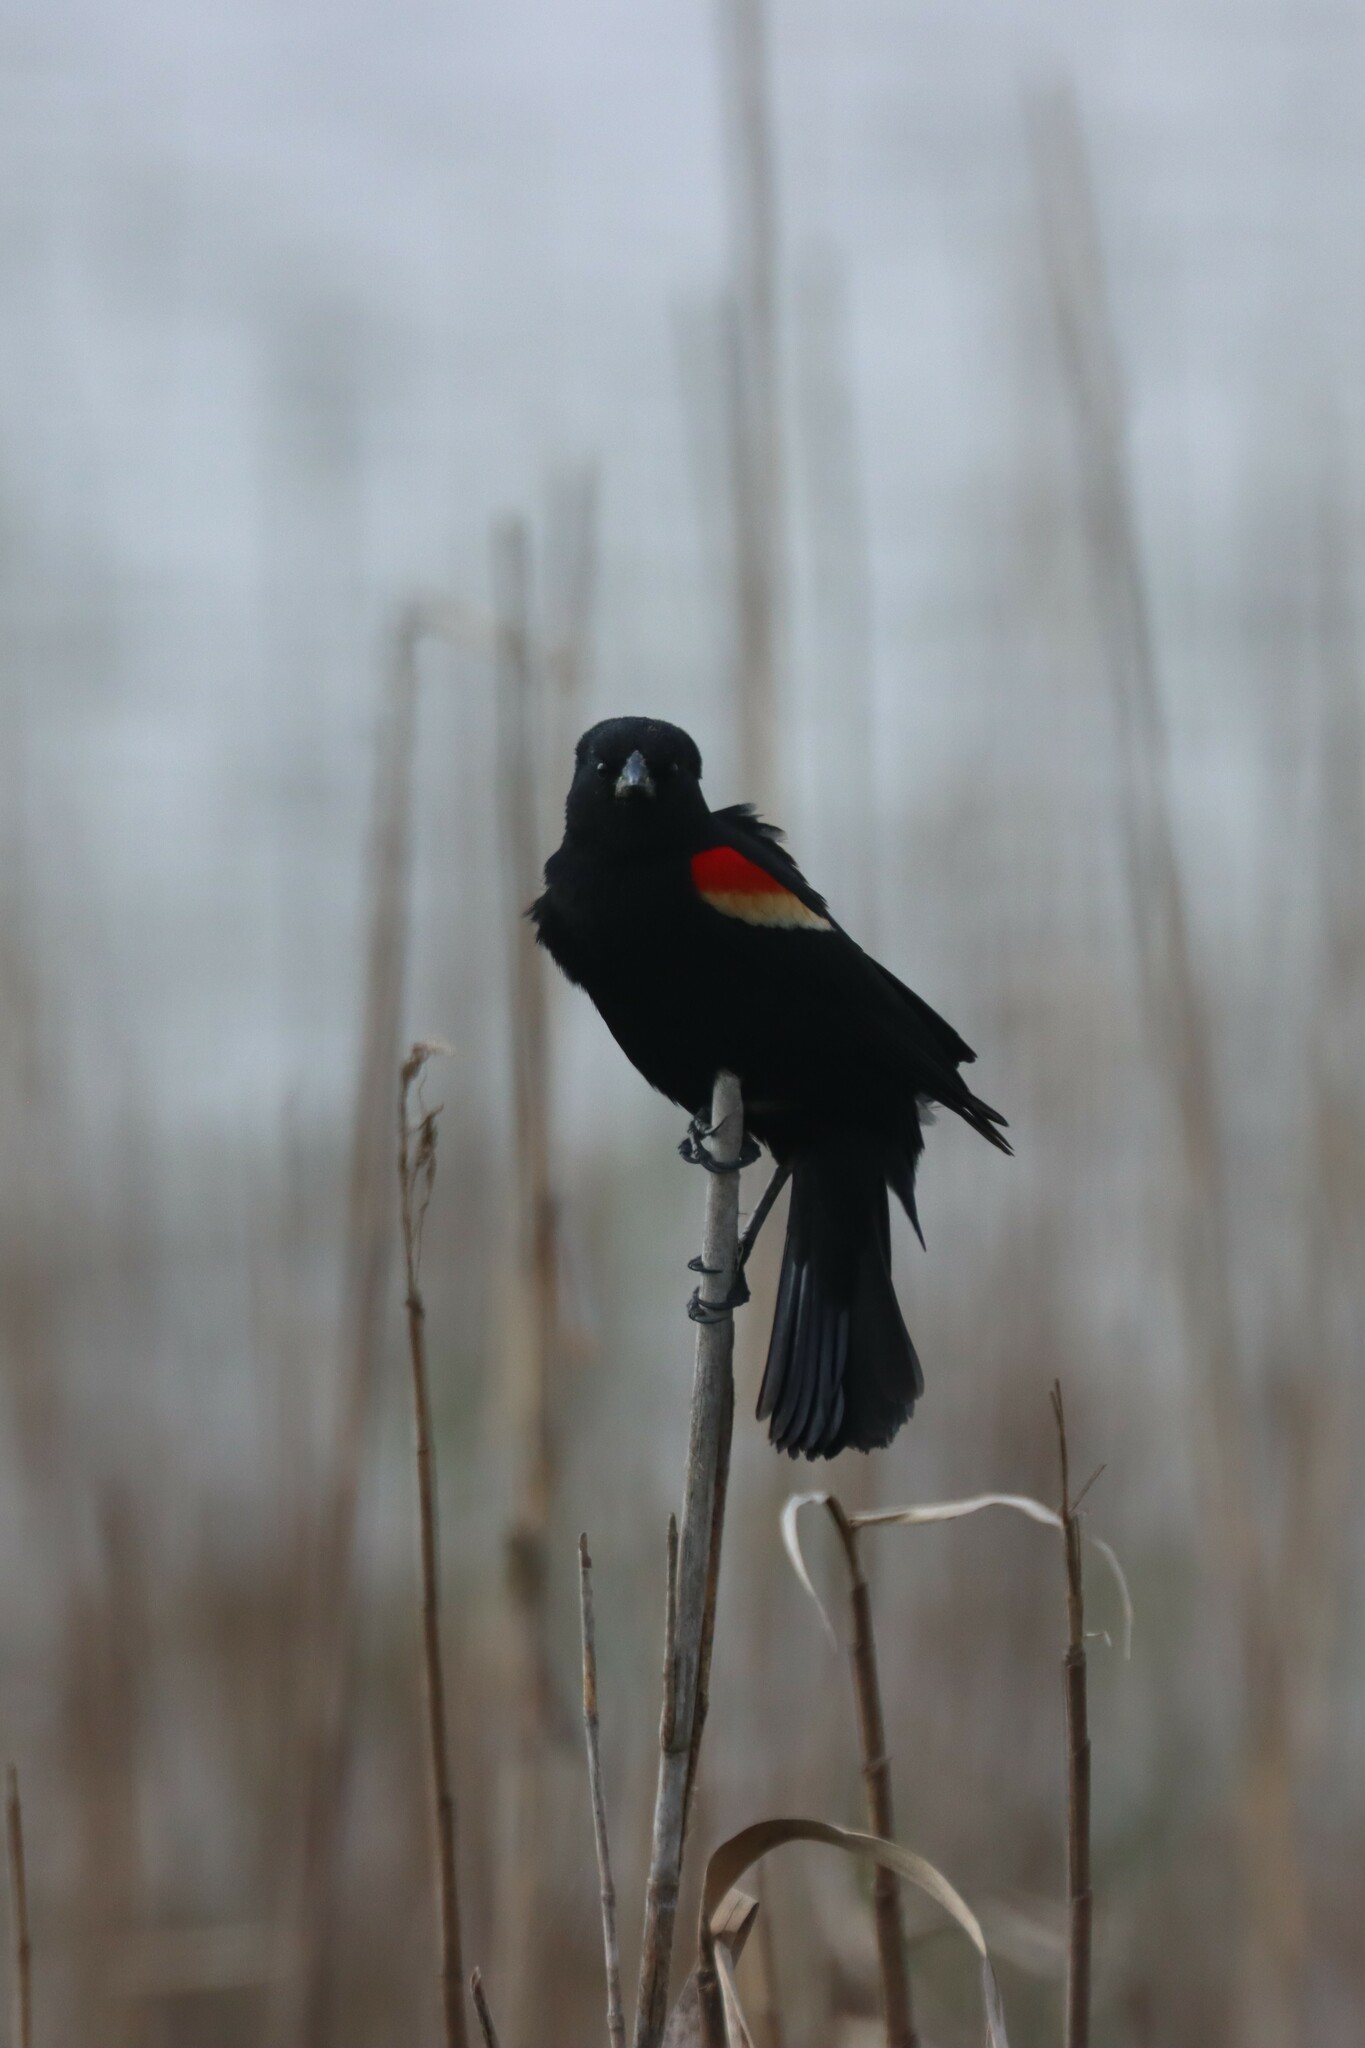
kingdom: Animalia
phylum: Chordata
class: Aves
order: Passeriformes
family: Icteridae
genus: Agelaius
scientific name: Agelaius phoeniceus
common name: Red-winged blackbird
